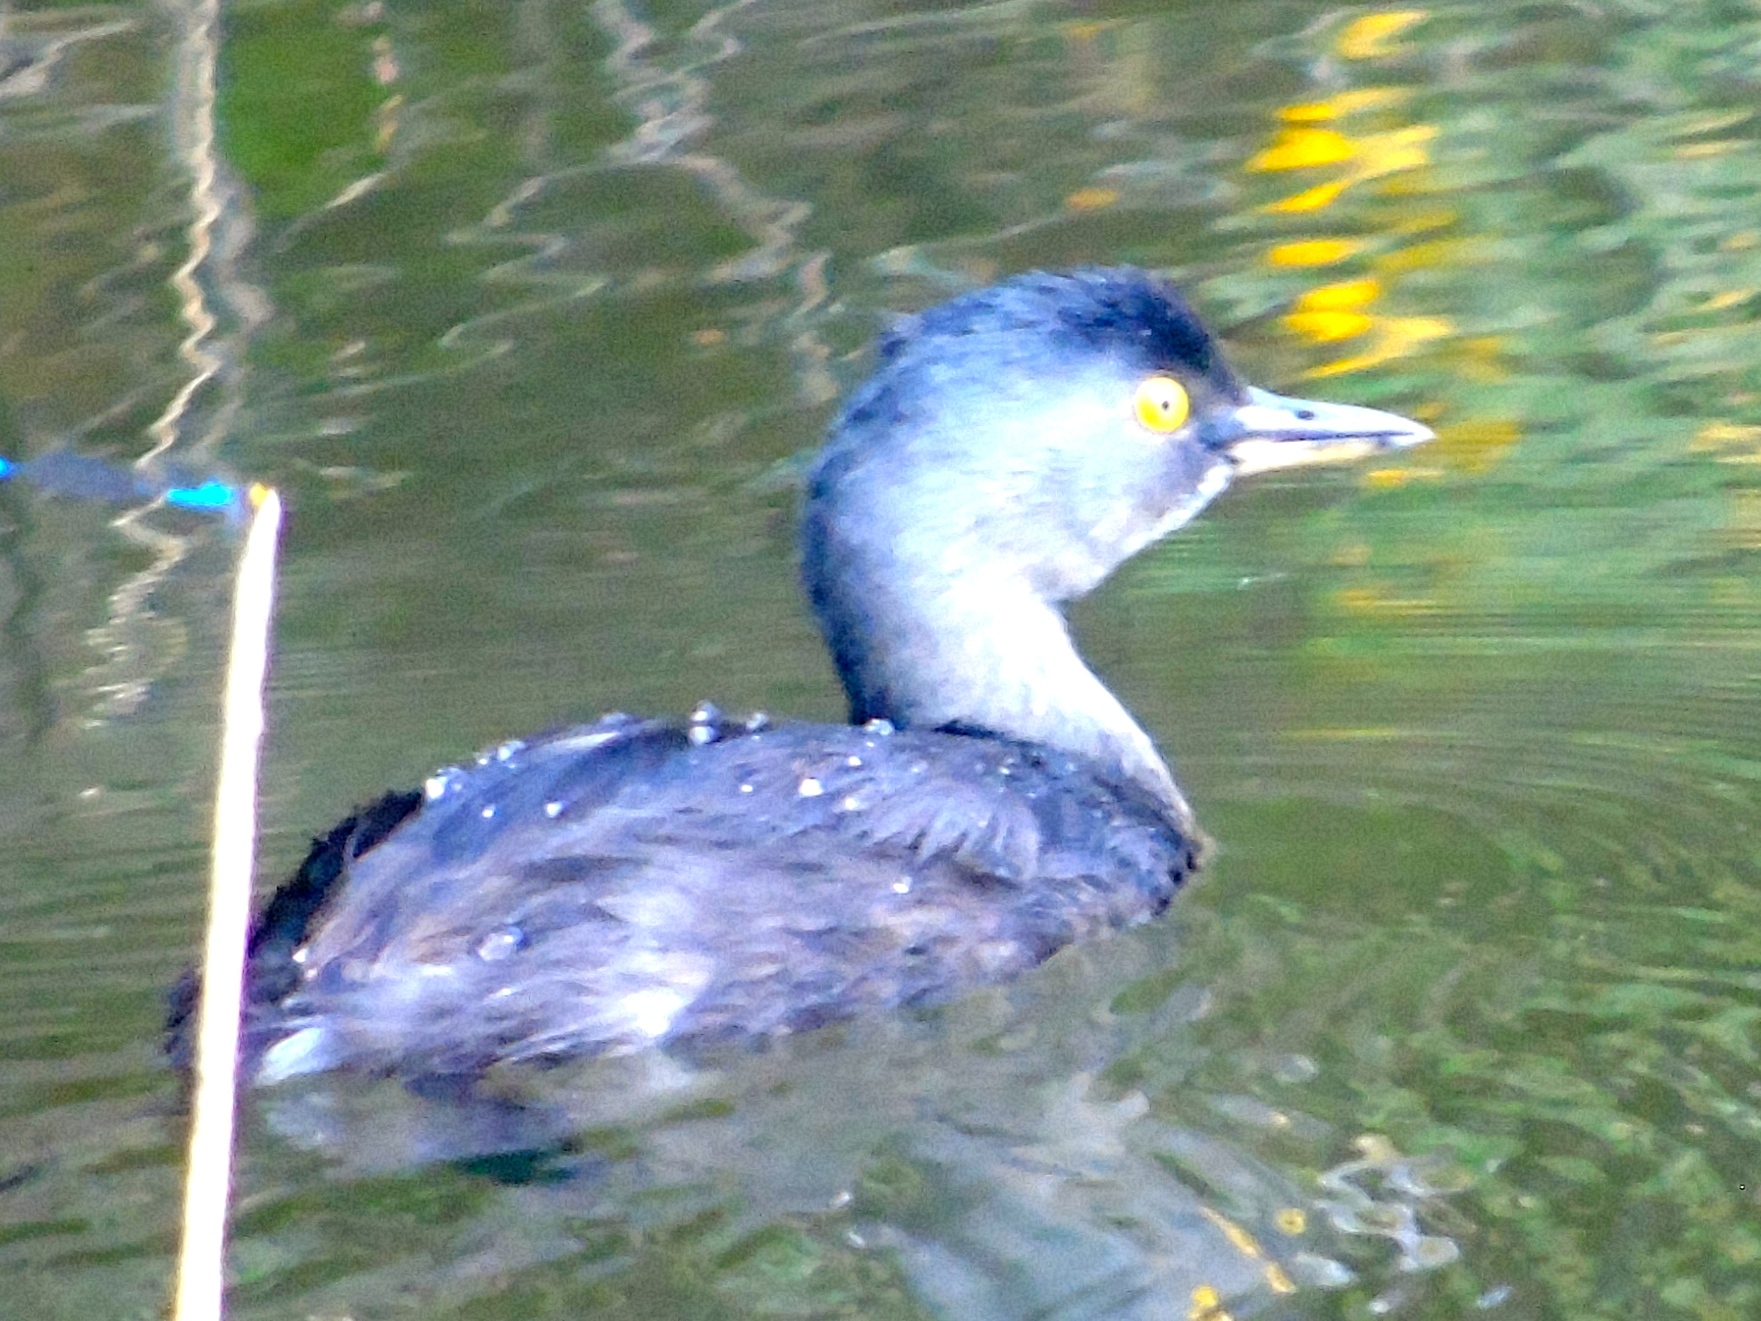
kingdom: Animalia
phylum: Chordata
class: Aves
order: Podicipediformes
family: Podicipedidae
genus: Tachybaptus
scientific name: Tachybaptus dominicus
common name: Least grebe
